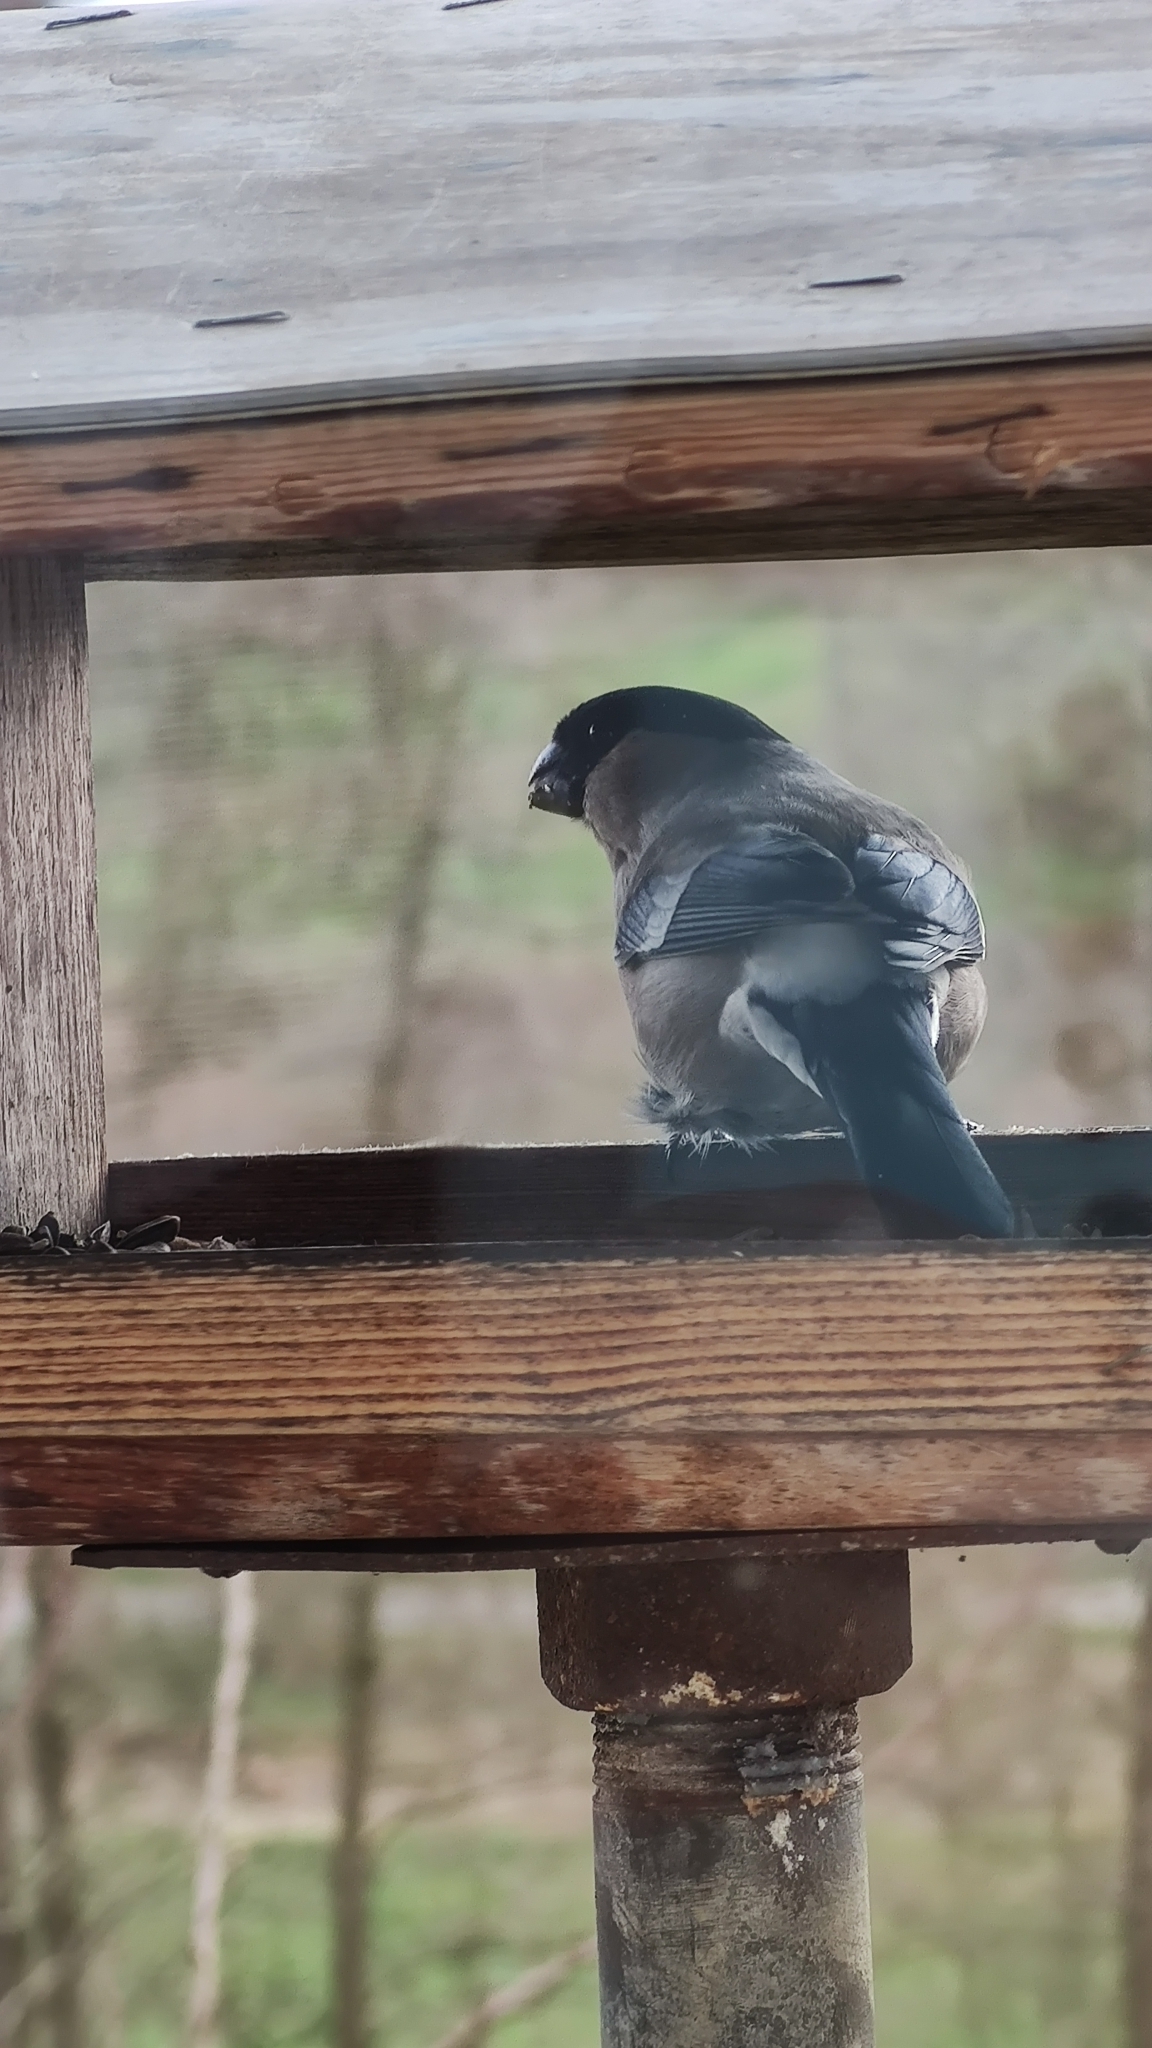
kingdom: Animalia
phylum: Chordata
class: Aves
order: Passeriformes
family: Fringillidae
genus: Pyrrhula
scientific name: Pyrrhula pyrrhula
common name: Eurasian bullfinch
